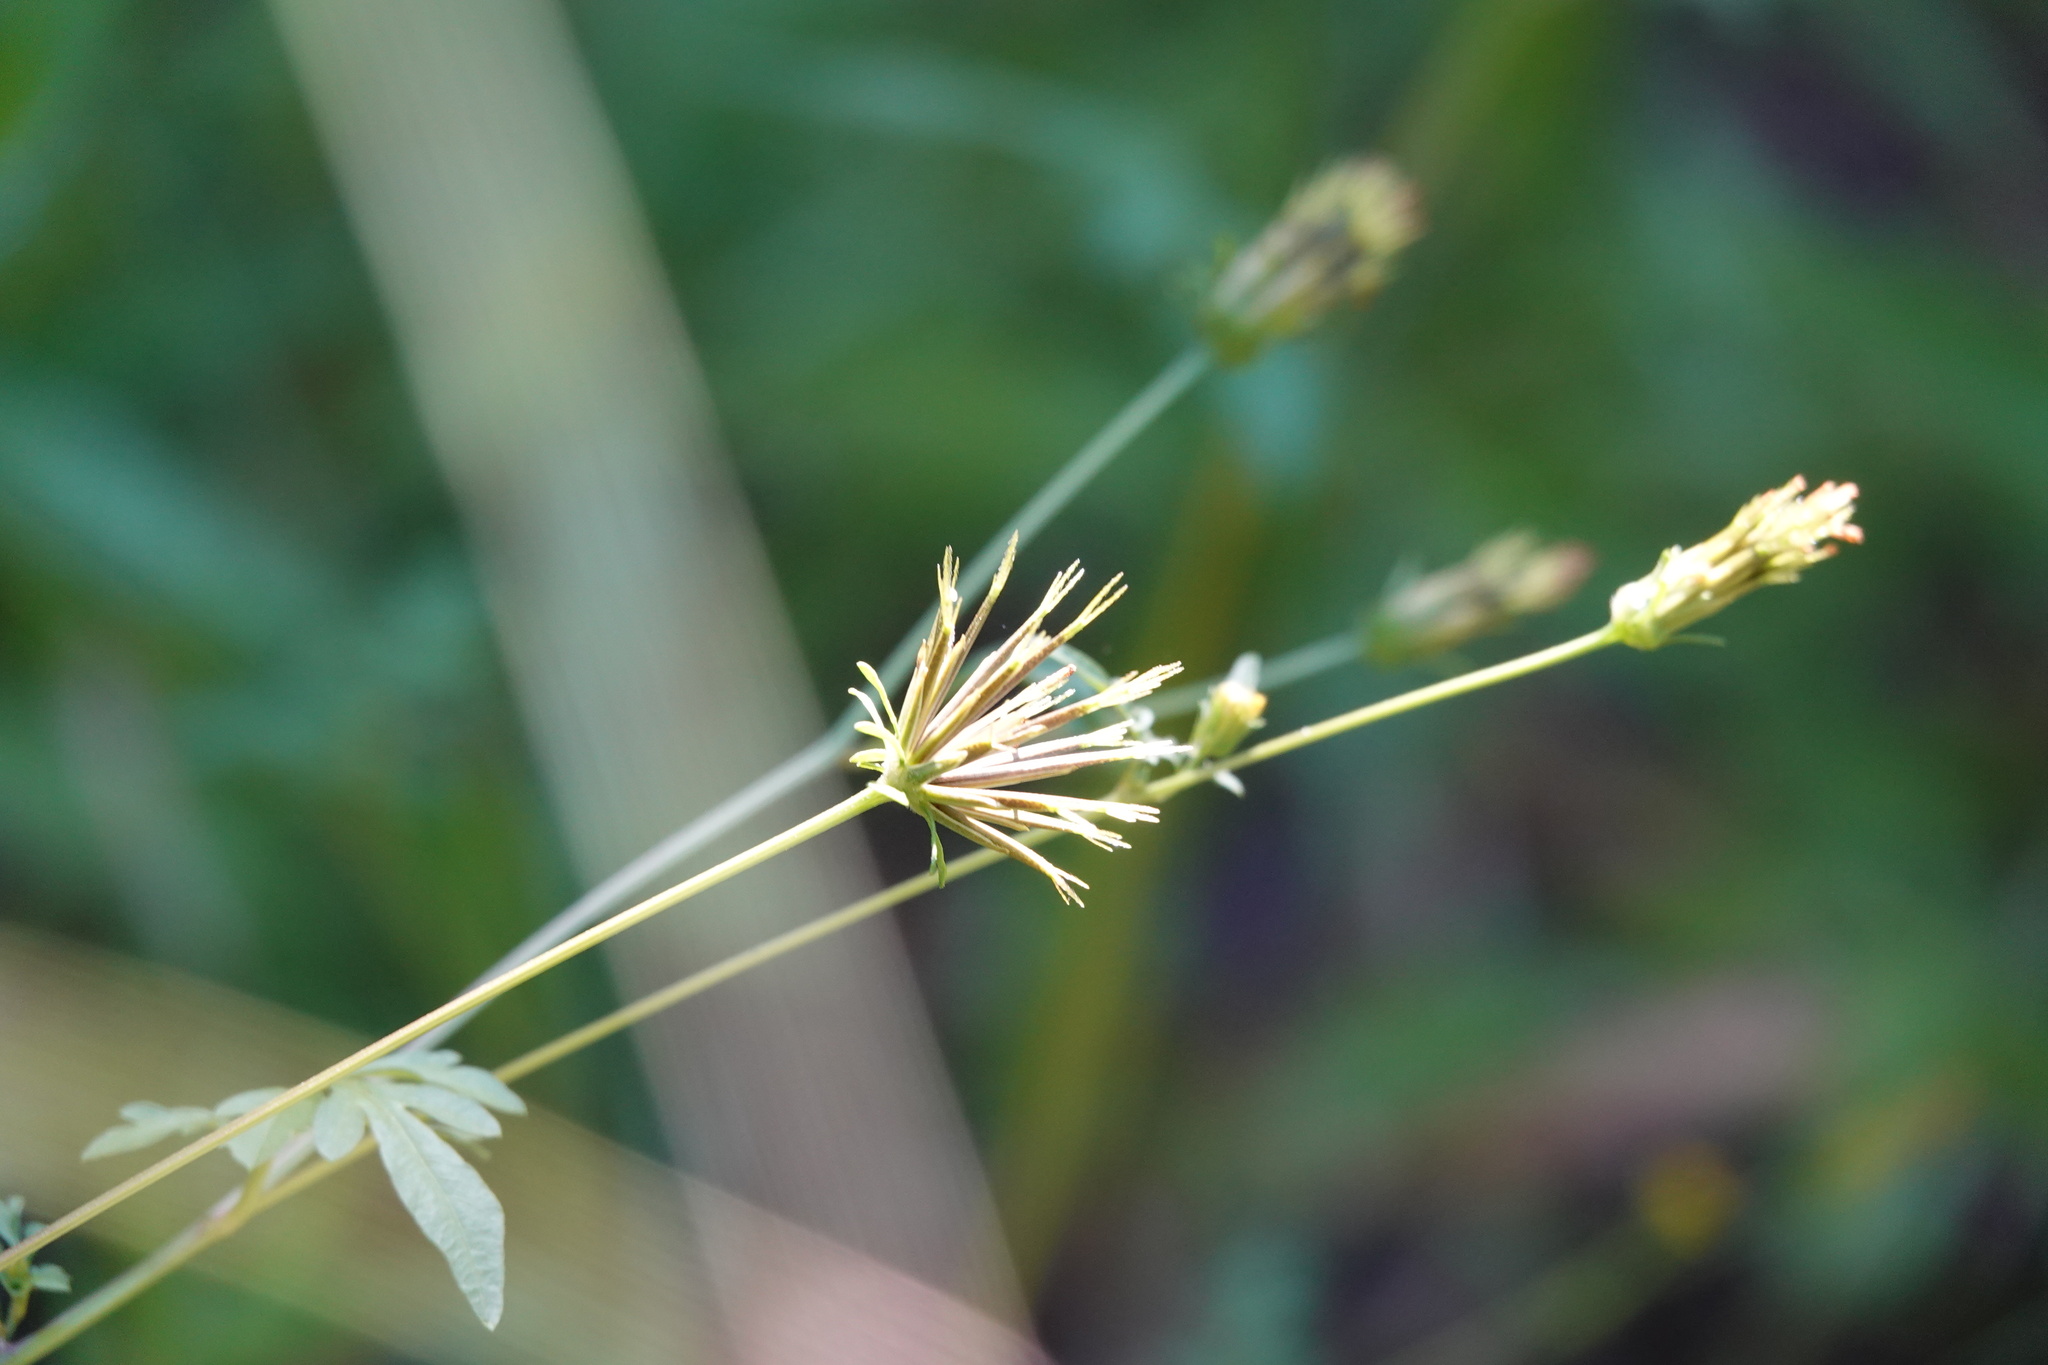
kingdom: Plantae
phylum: Tracheophyta
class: Magnoliopsida
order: Asterales
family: Asteraceae
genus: Bidens
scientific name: Bidens bipinnata
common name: Spanish-needles
